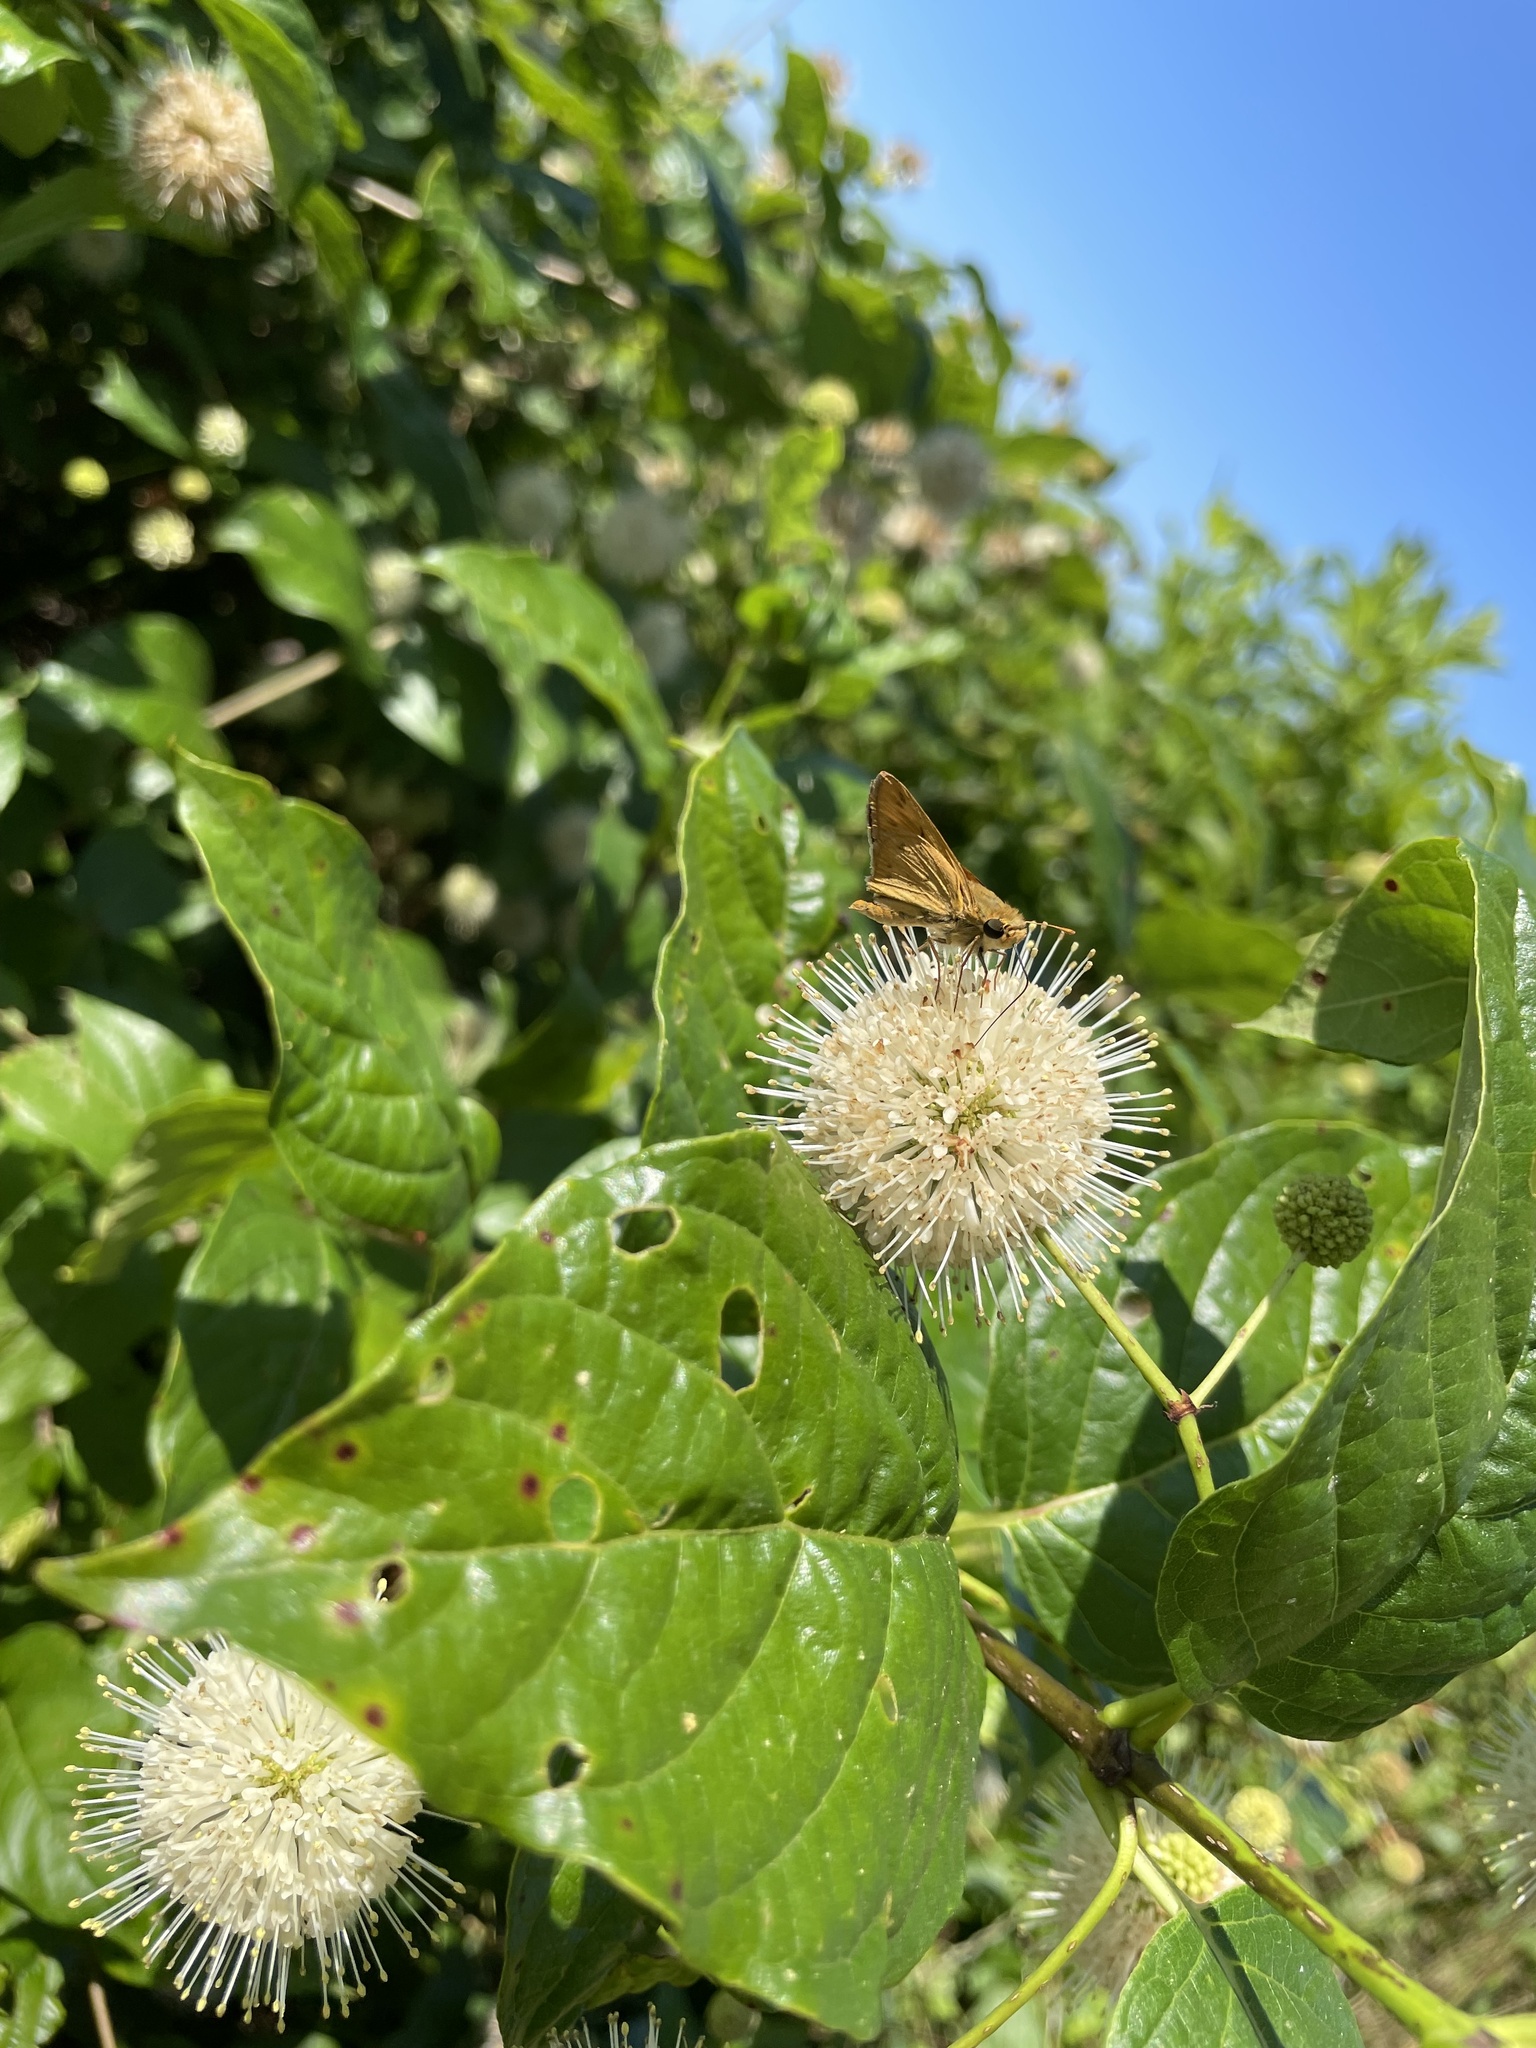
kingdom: Animalia
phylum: Arthropoda
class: Insecta
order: Lepidoptera
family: Hesperiidae
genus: Hylephila
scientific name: Hylephila phyleus
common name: Fiery skipper
